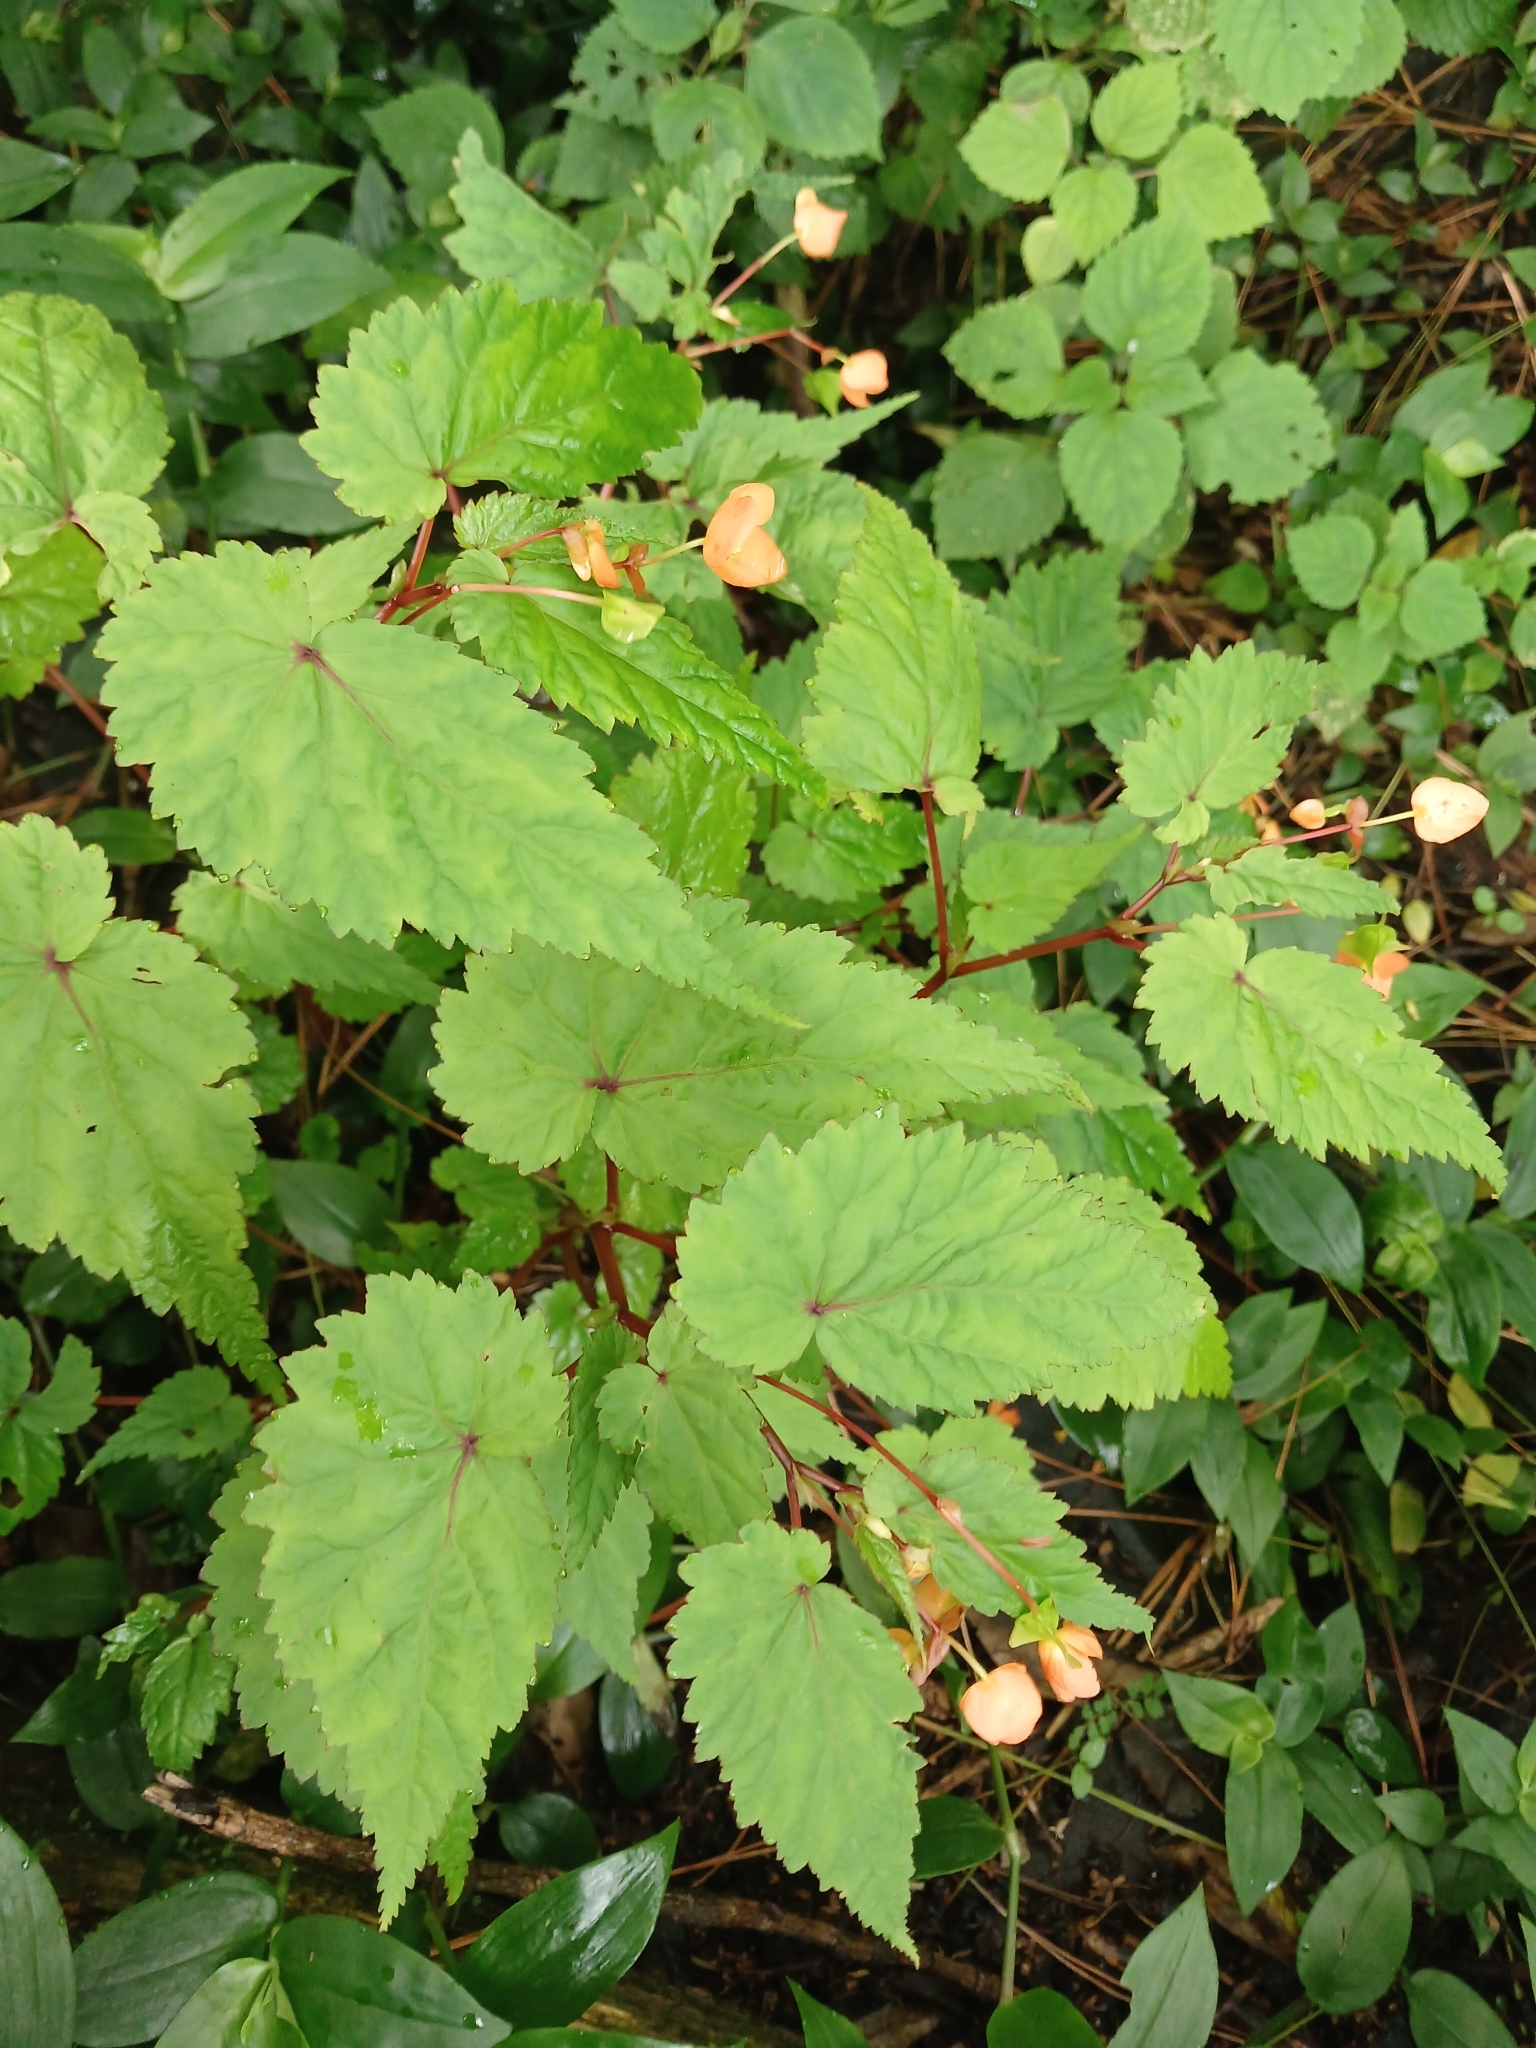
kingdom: Plantae
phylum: Tracheophyta
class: Magnoliopsida
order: Cucurbitales
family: Begoniaceae
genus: Begonia
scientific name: Begonia sutherlandii
